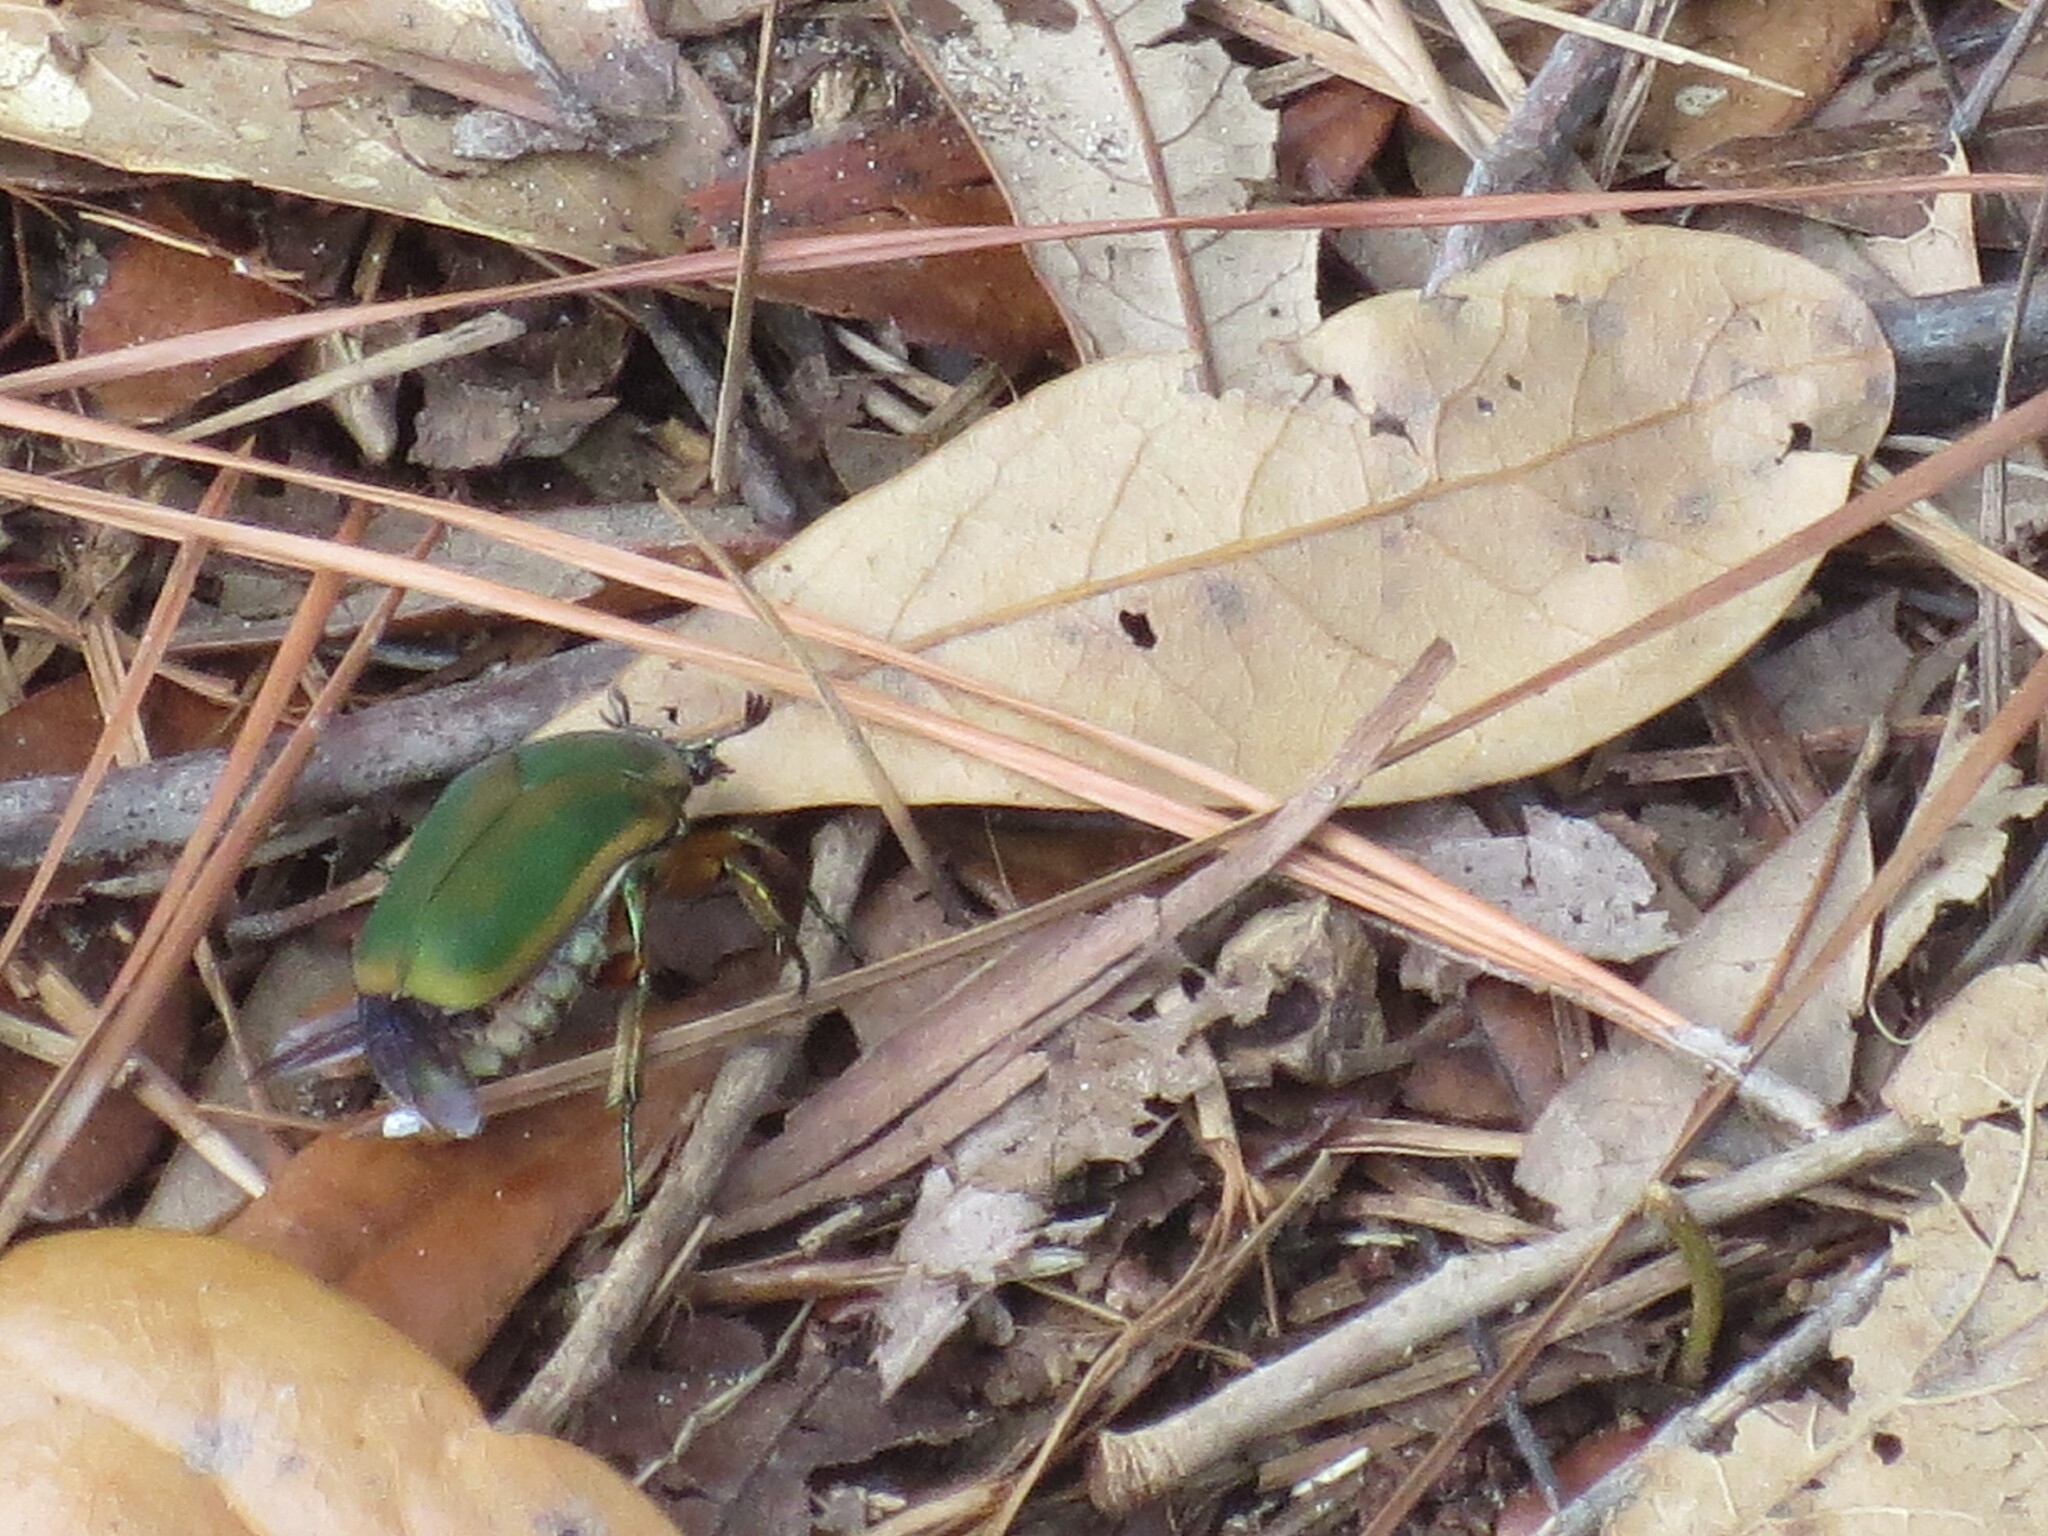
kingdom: Animalia
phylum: Arthropoda
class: Insecta
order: Coleoptera
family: Scarabaeidae
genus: Cotinis
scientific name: Cotinis nitida
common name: Common green june beetle
